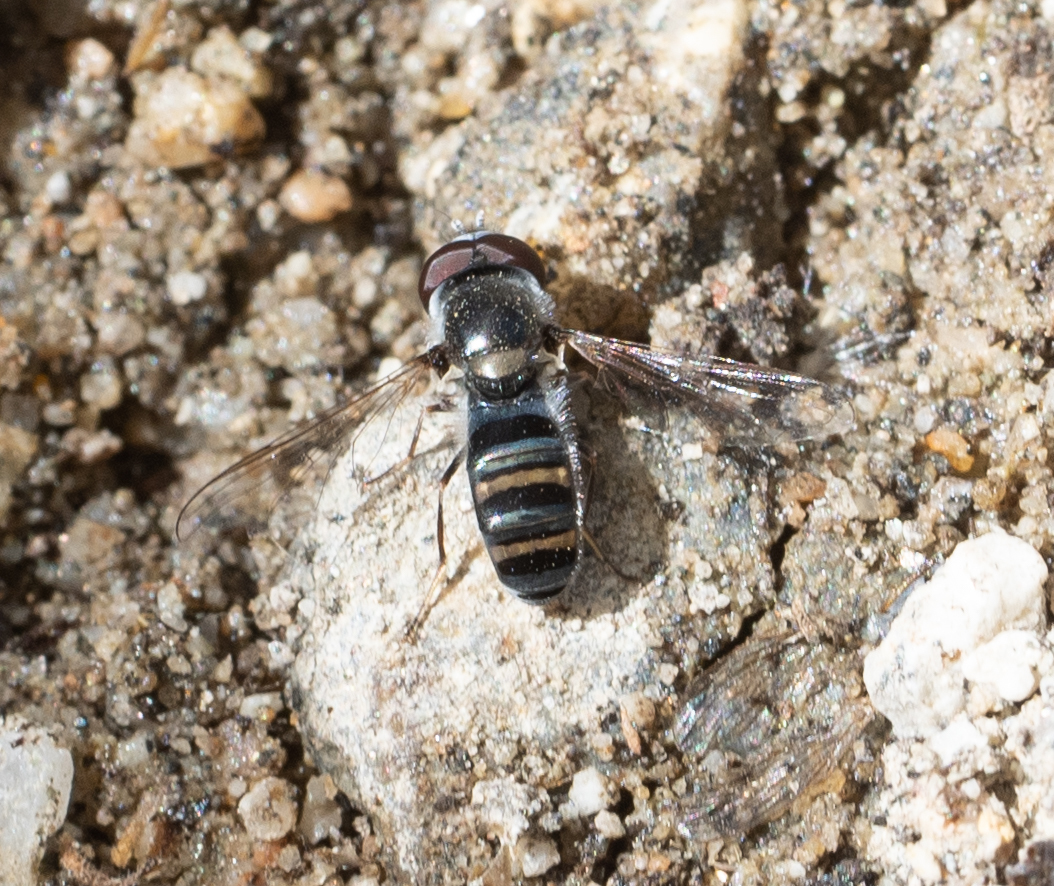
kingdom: Animalia
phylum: Arthropoda
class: Insecta
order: Diptera
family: Syrphidae
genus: Pseudoscaeva
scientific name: Pseudoscaeva diversifasciata
